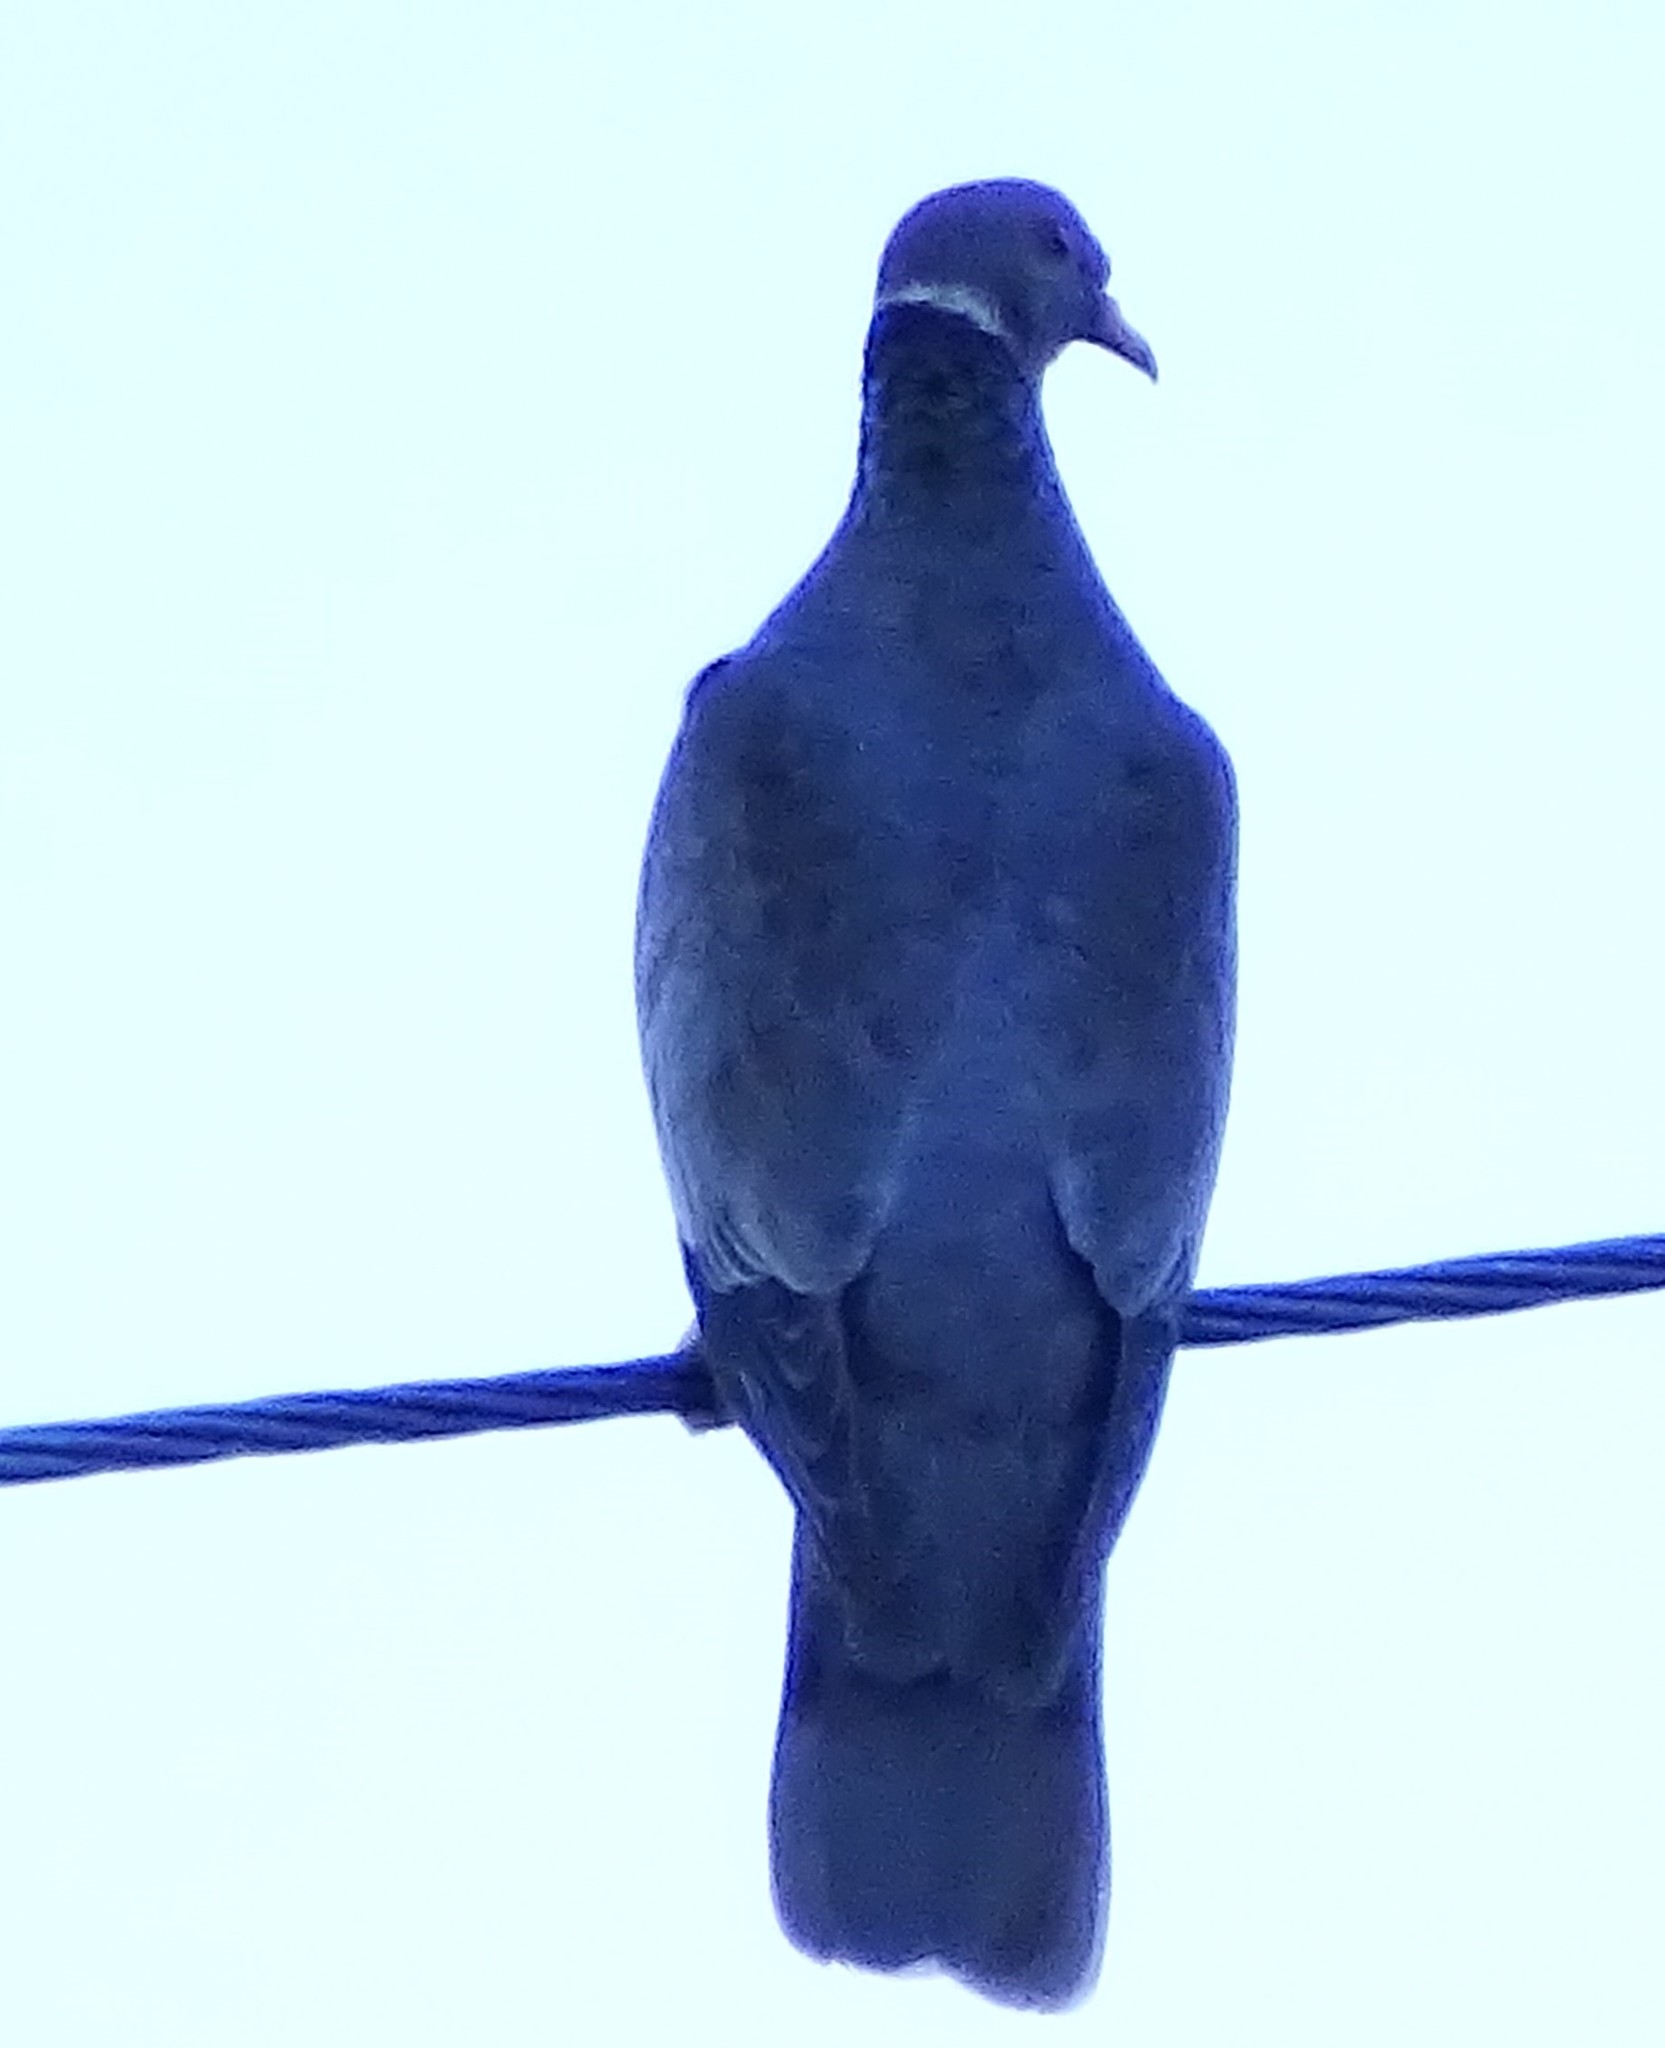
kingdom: Animalia
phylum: Chordata
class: Aves
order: Columbiformes
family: Columbidae
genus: Patagioenas
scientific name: Patagioenas fasciata
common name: Band-tailed pigeon
